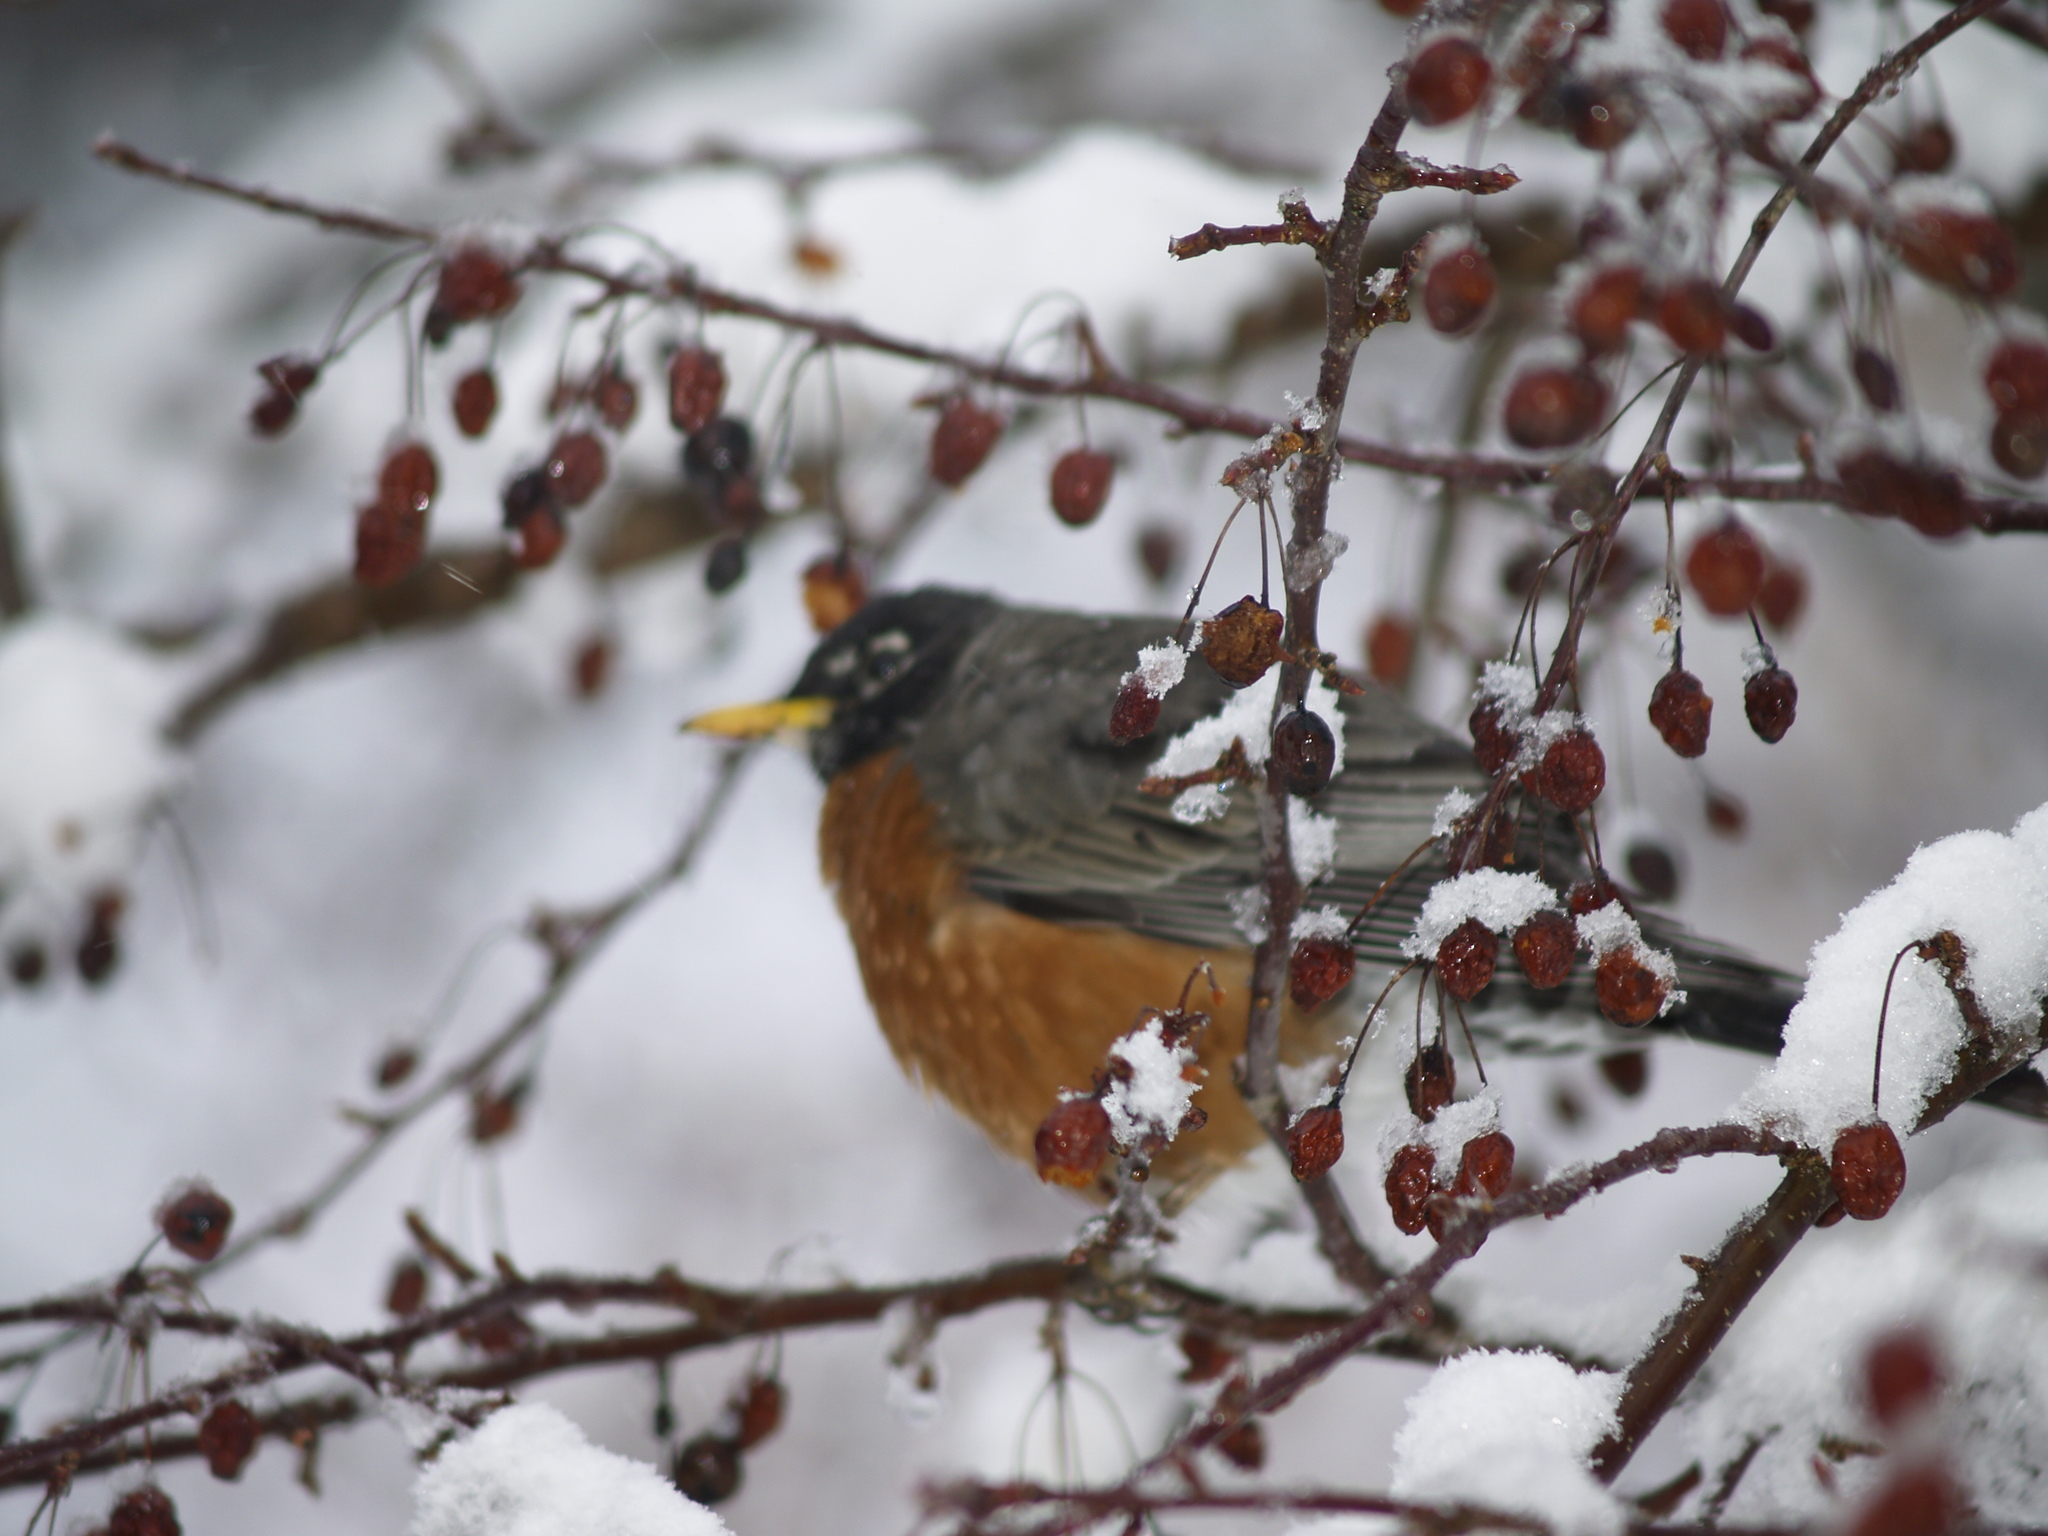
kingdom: Animalia
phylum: Chordata
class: Aves
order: Passeriformes
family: Turdidae
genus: Turdus
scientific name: Turdus migratorius
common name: American robin
